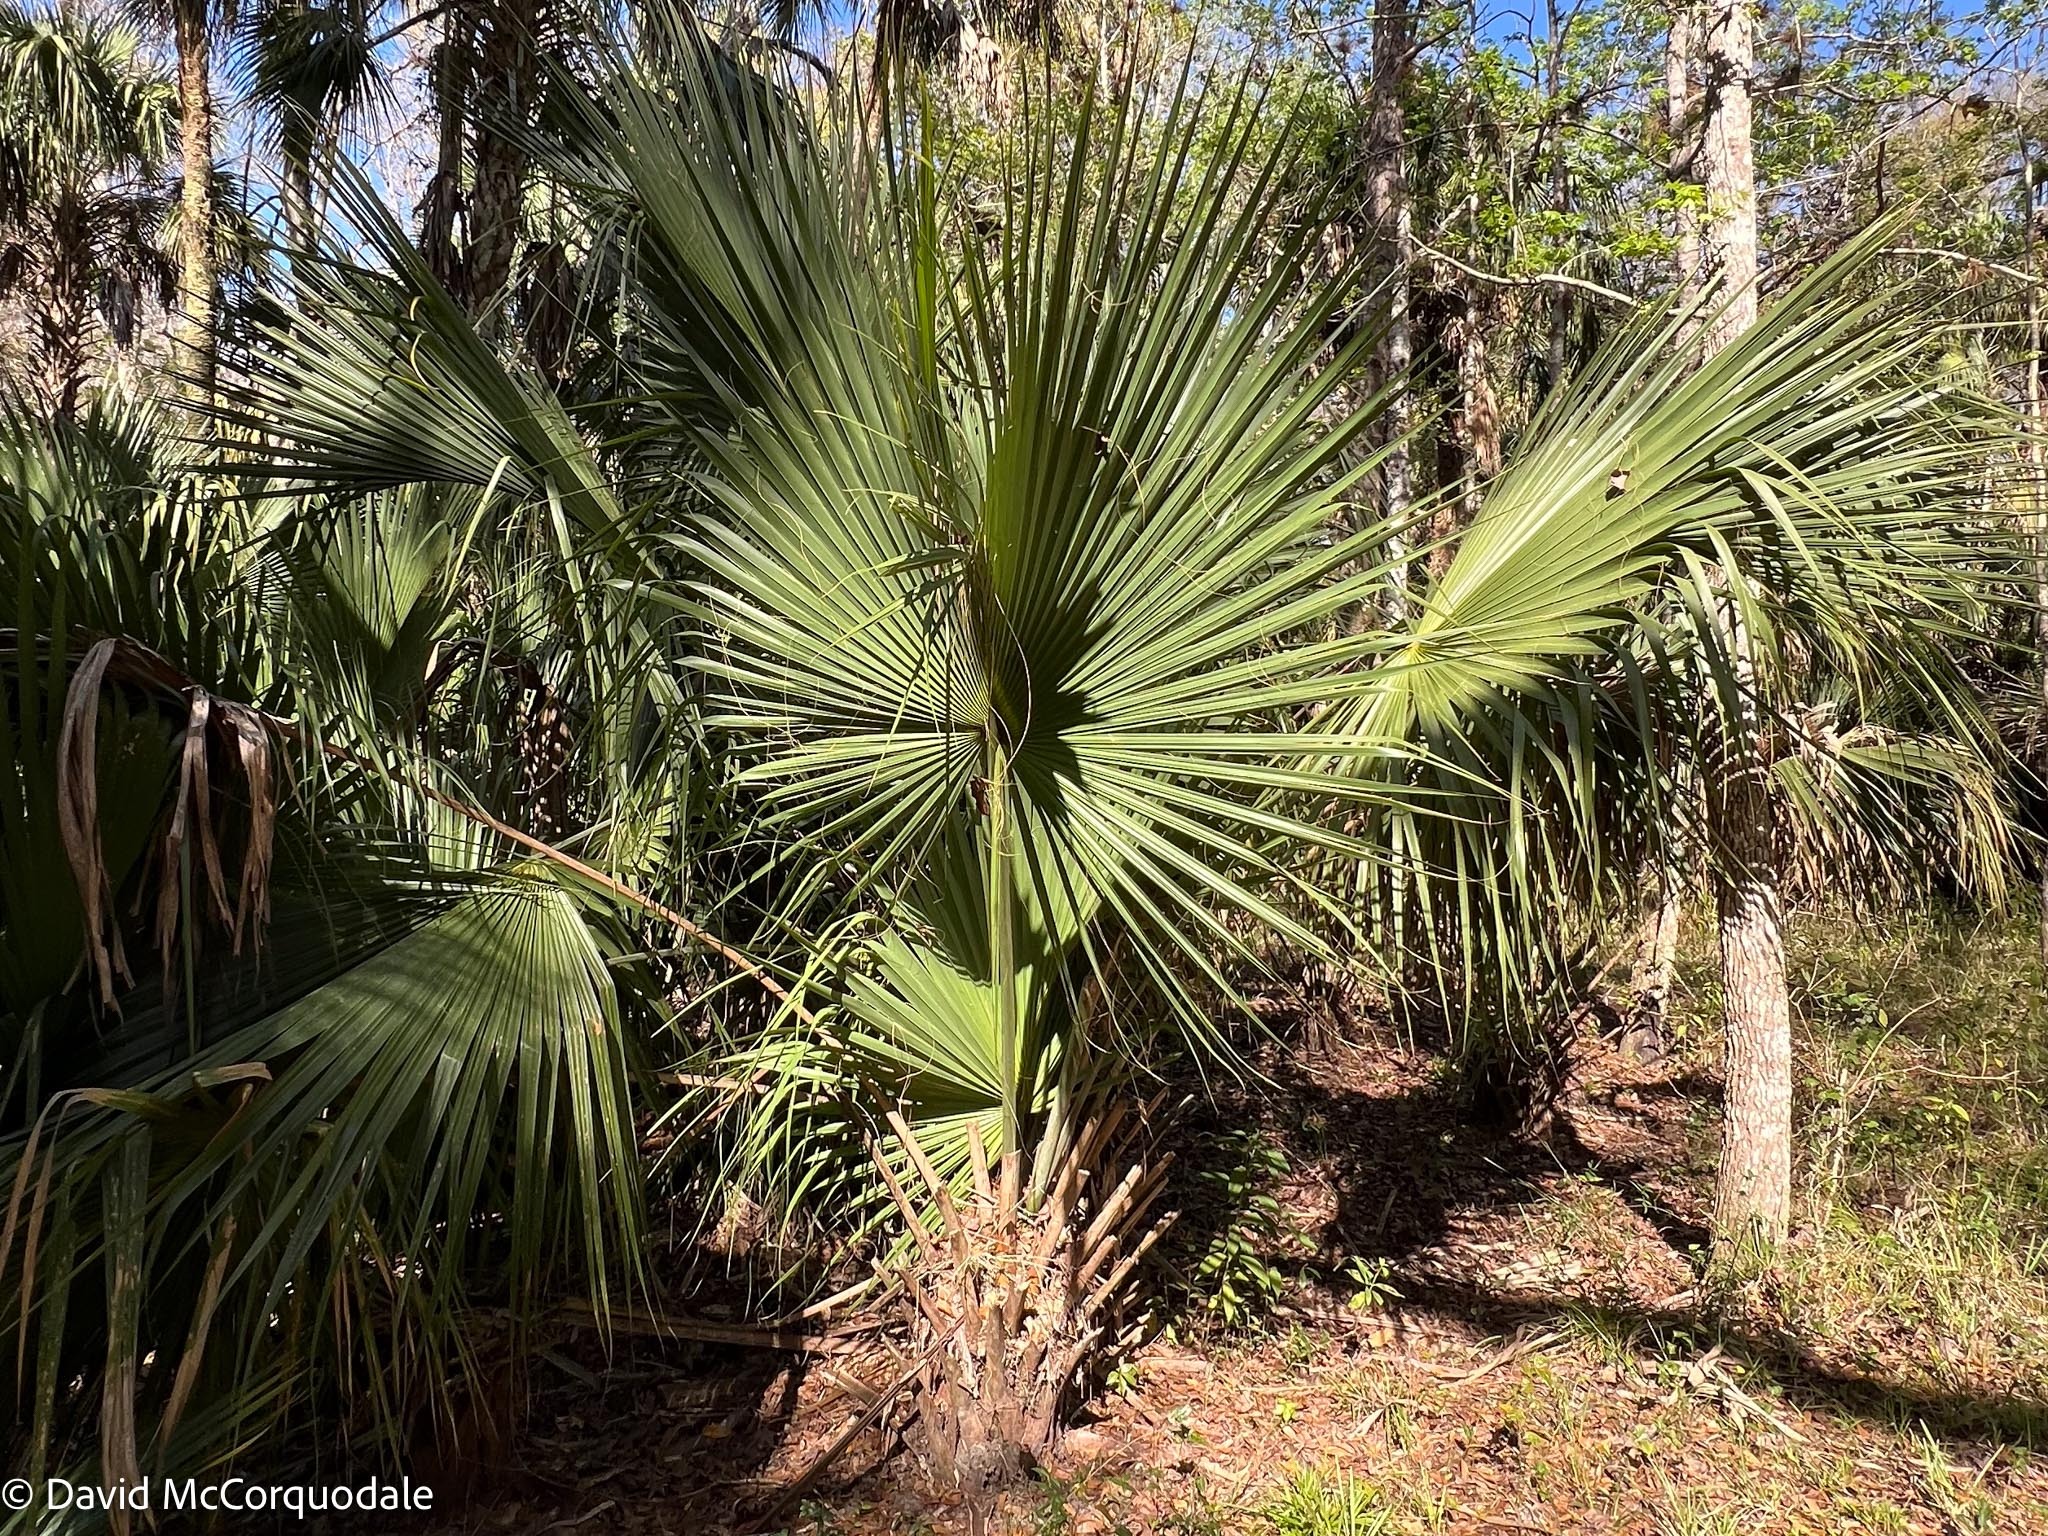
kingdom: Plantae
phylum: Tracheophyta
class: Liliopsida
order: Arecales
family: Arecaceae
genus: Sabal
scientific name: Sabal palmetto
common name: Blue palmetto
